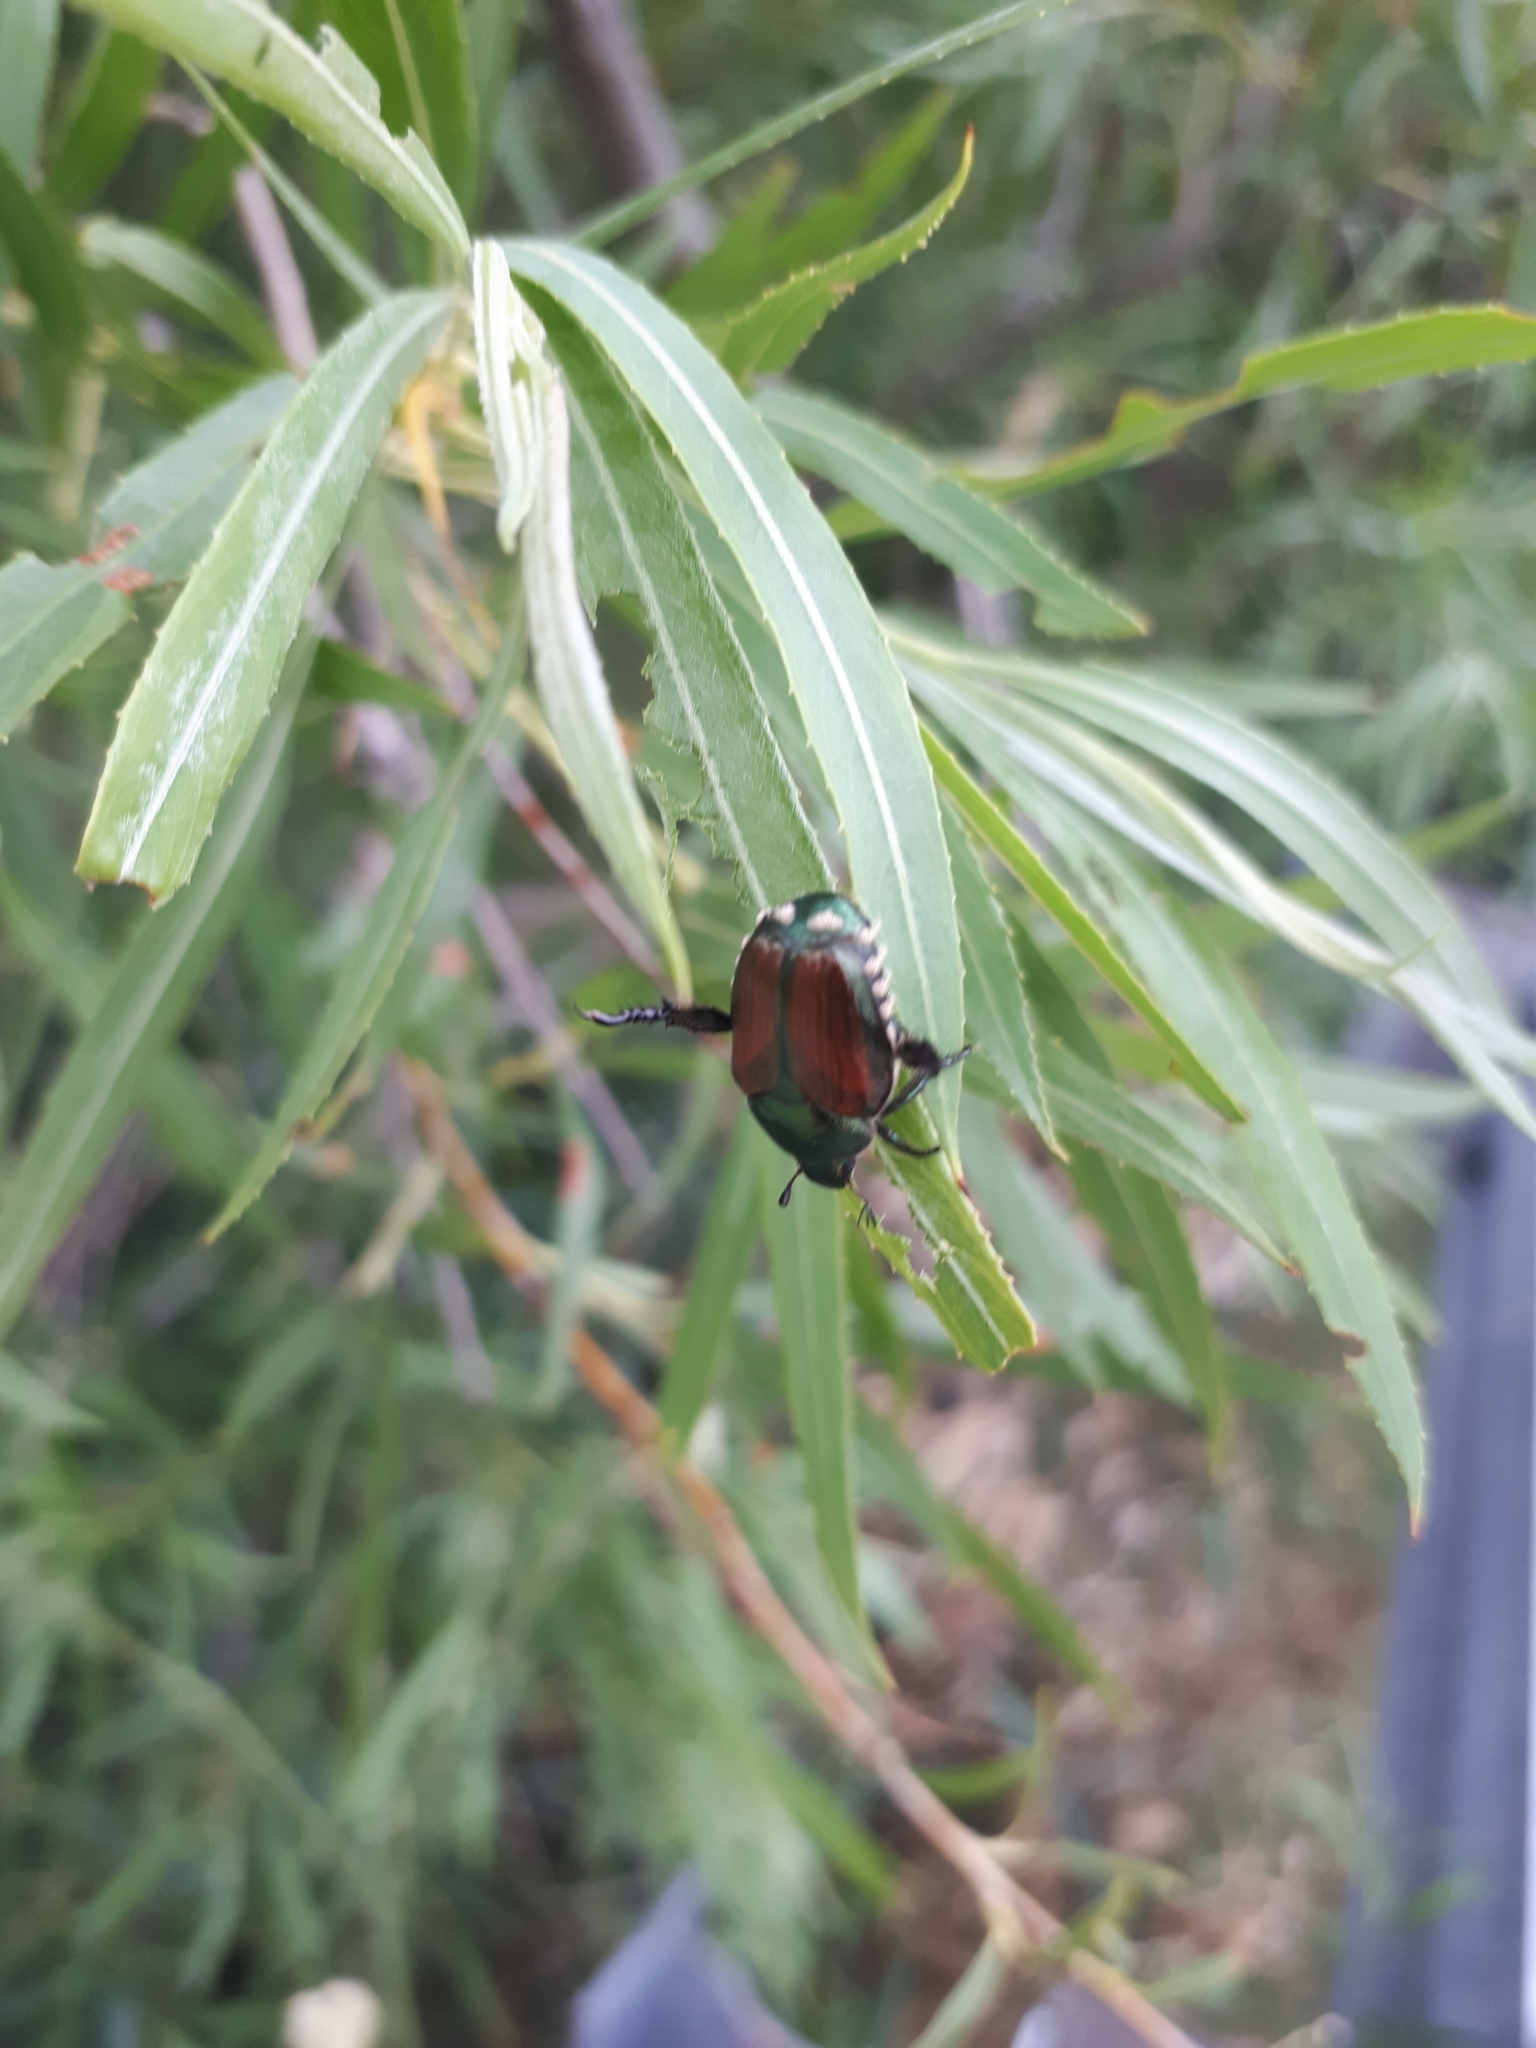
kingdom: Animalia
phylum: Arthropoda
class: Insecta
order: Coleoptera
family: Scarabaeidae
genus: Popillia
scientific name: Popillia japonica
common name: Japanese beetle
